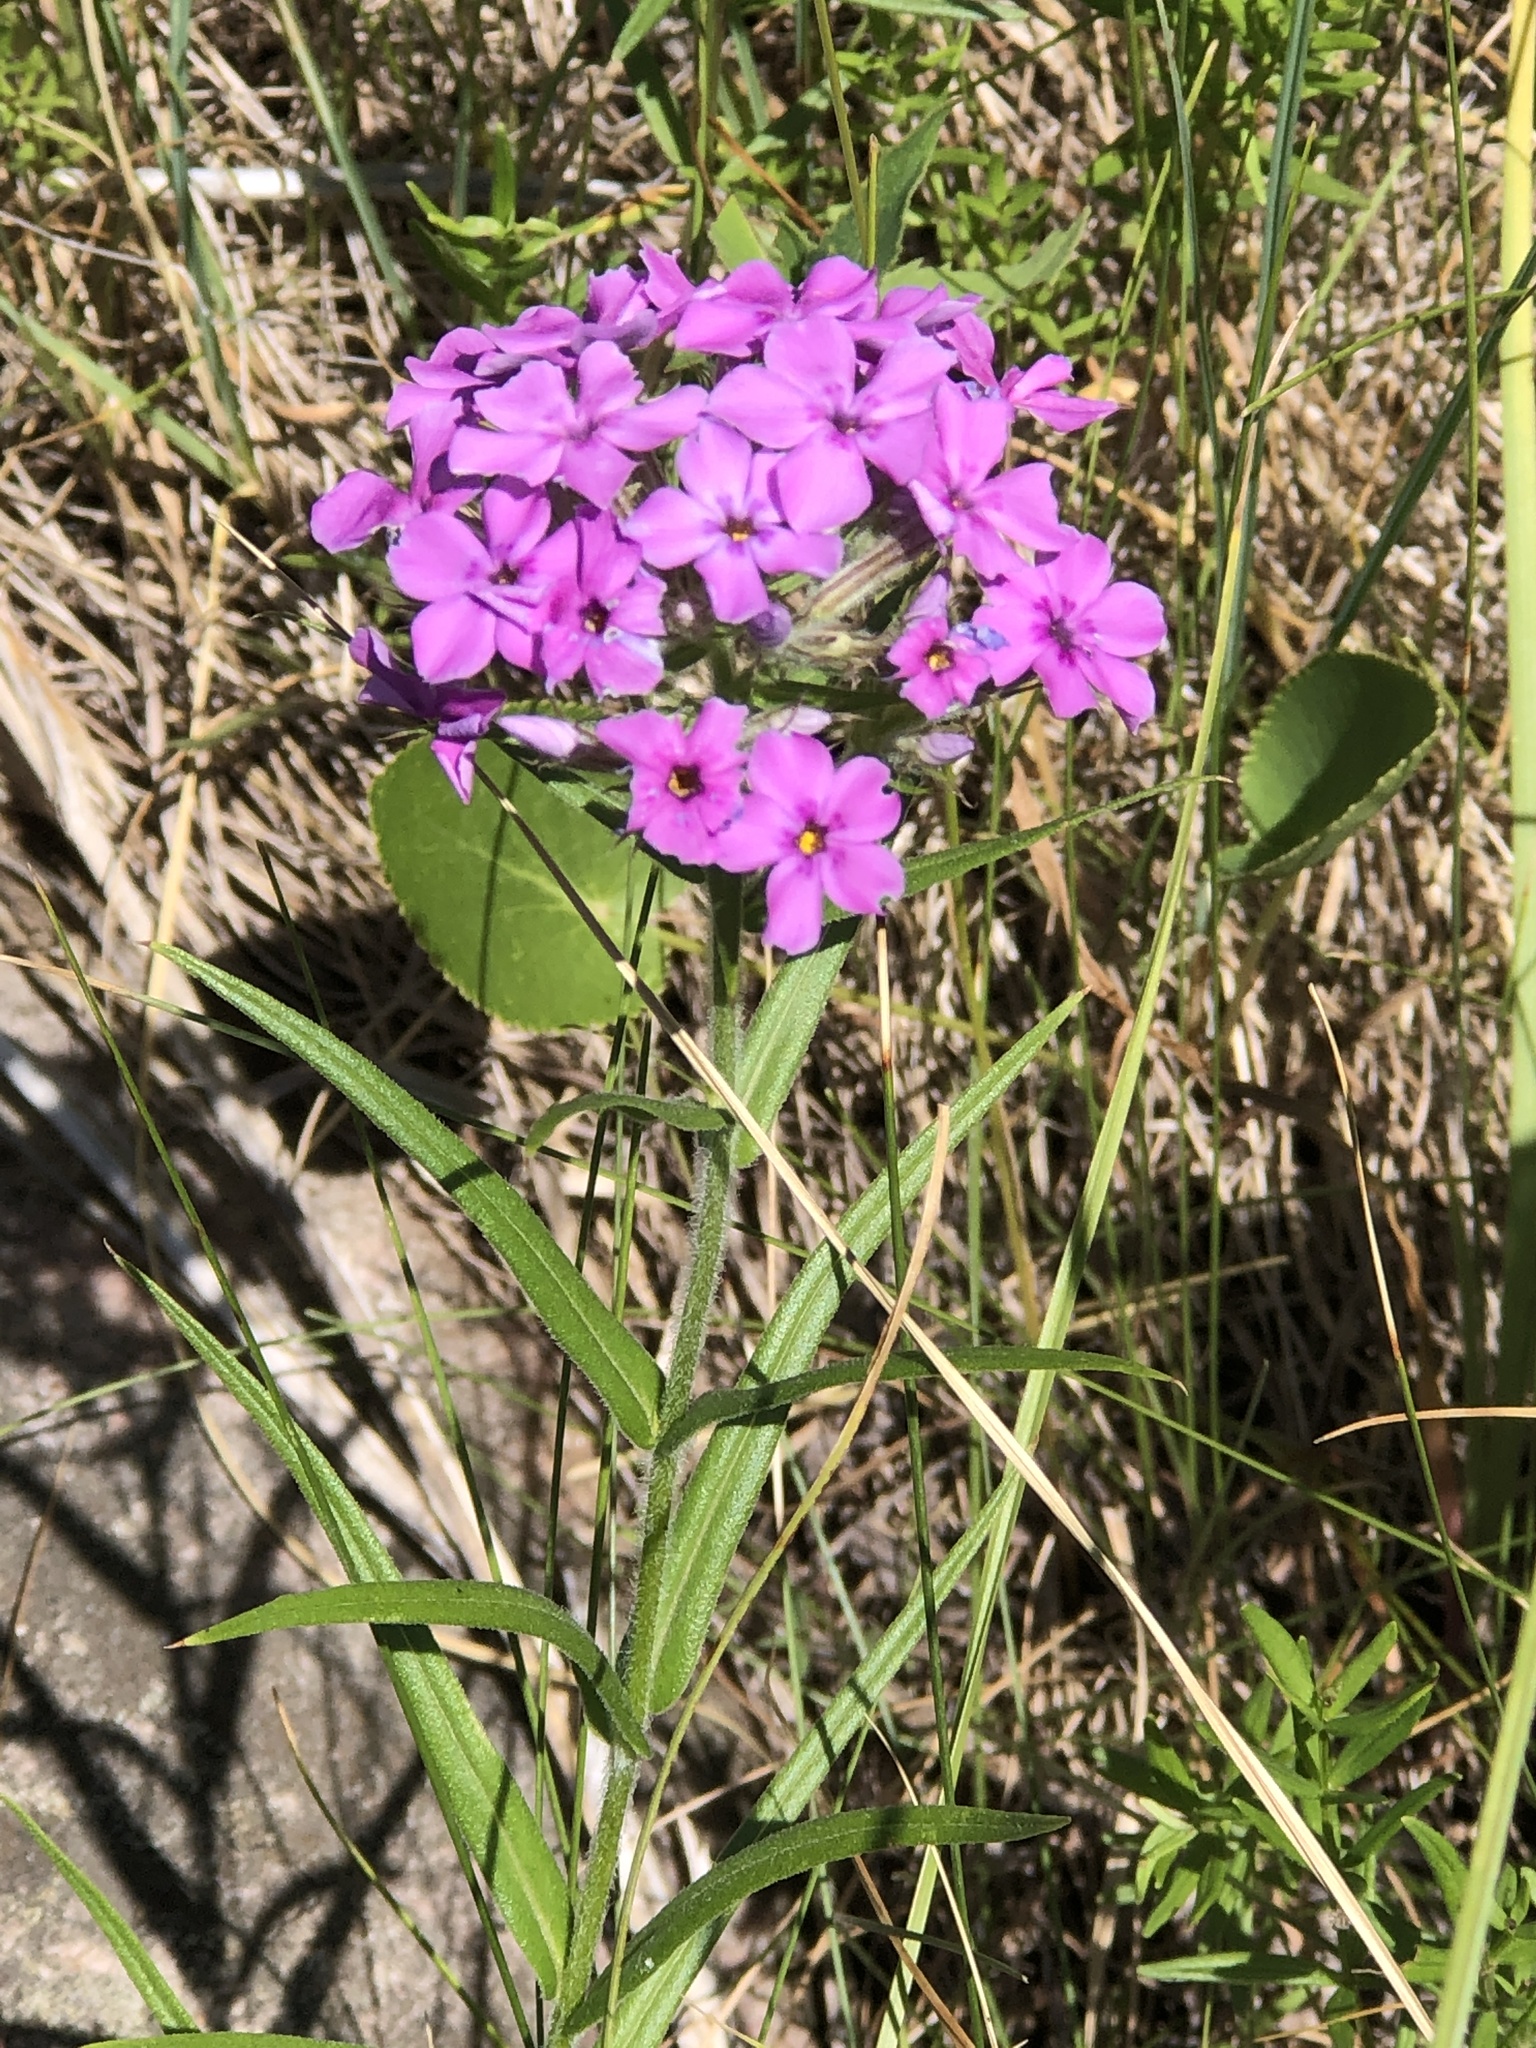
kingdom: Plantae
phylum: Tracheophyta
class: Magnoliopsida
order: Ericales
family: Polemoniaceae
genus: Phlox
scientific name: Phlox pilosa
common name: Prairie phlox
